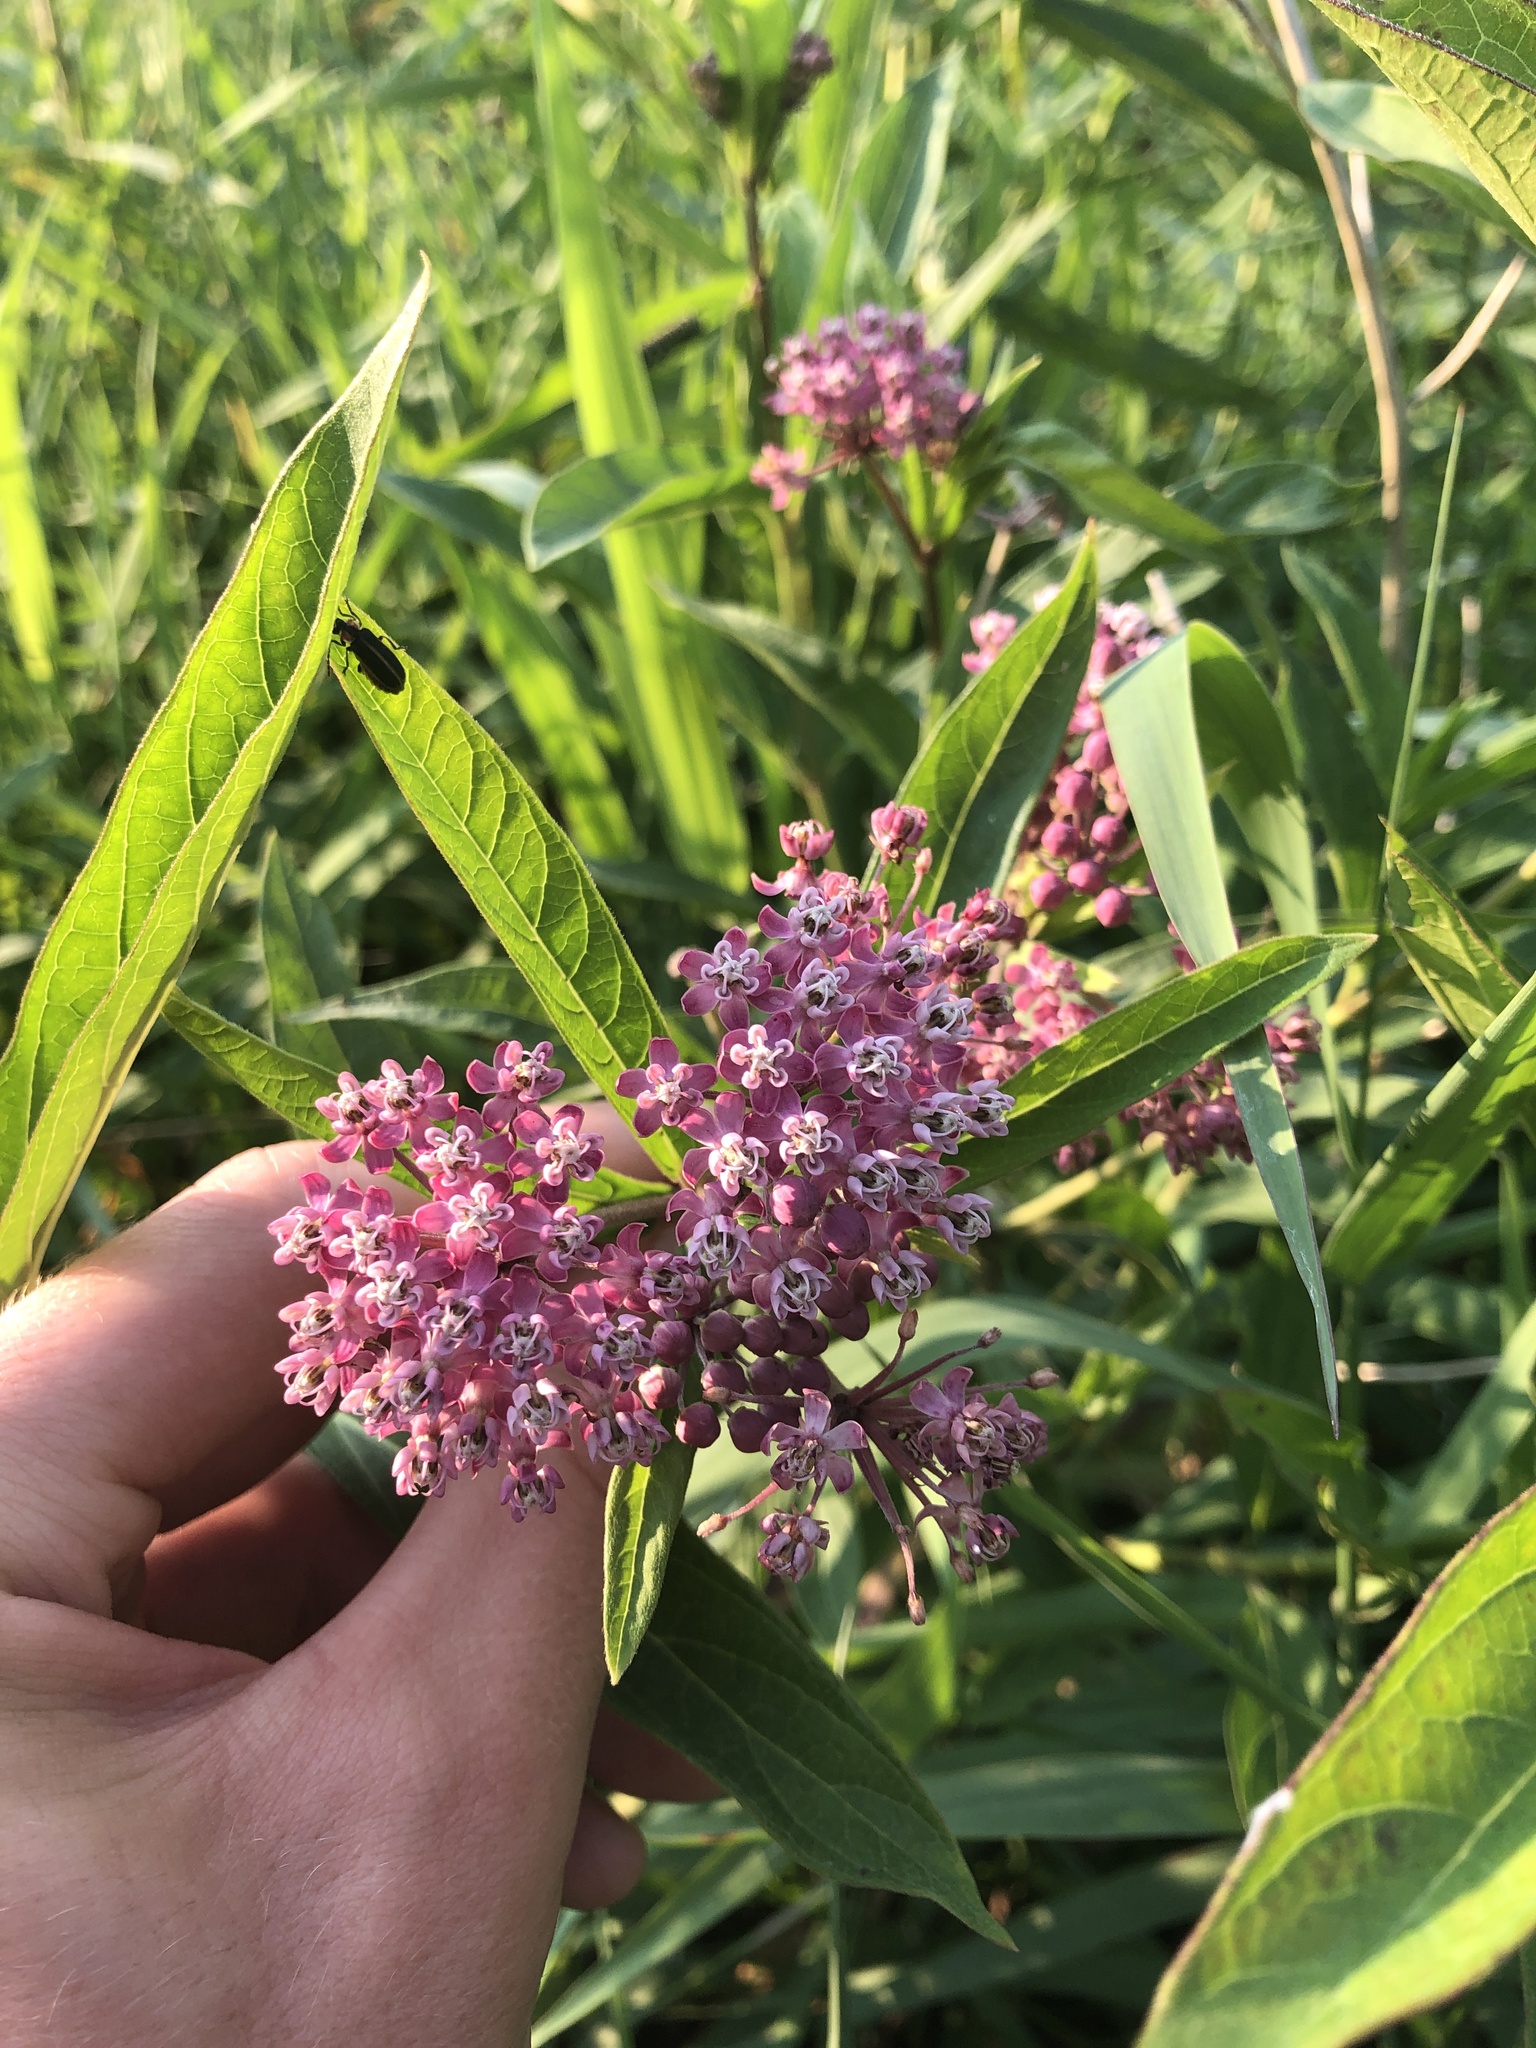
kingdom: Plantae
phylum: Tracheophyta
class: Magnoliopsida
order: Gentianales
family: Apocynaceae
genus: Asclepias
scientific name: Asclepias incarnata
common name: Swamp milkweed
